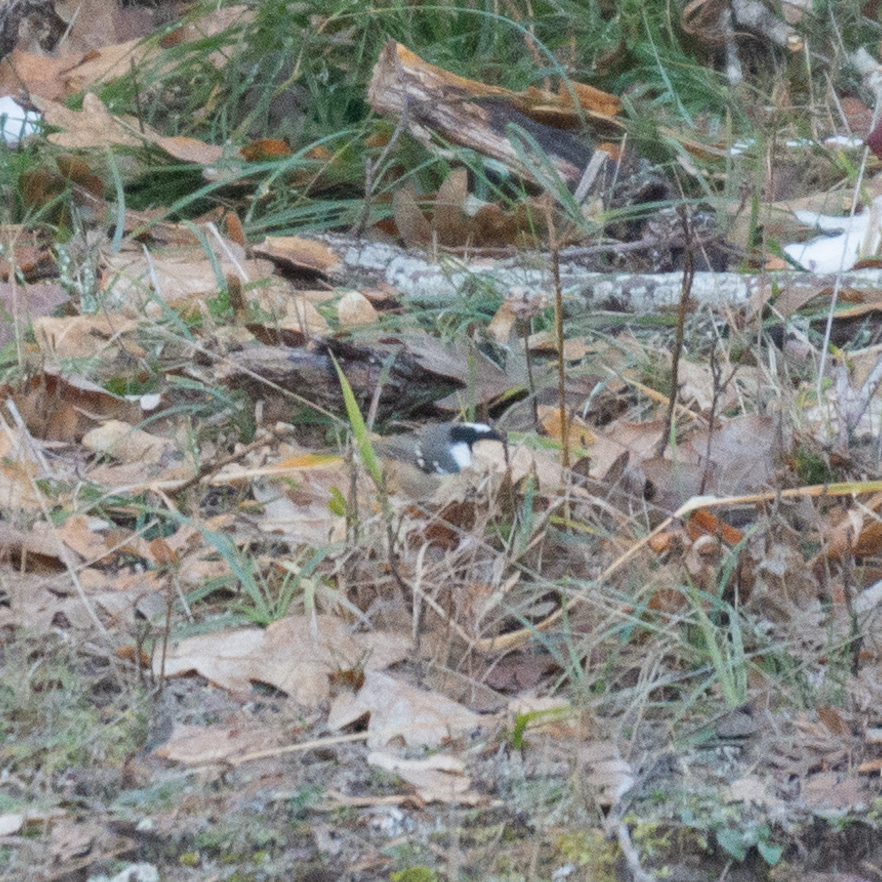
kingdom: Animalia
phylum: Chordata
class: Aves
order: Passeriformes
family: Paridae
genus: Periparus
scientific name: Periparus ater
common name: Coal tit
